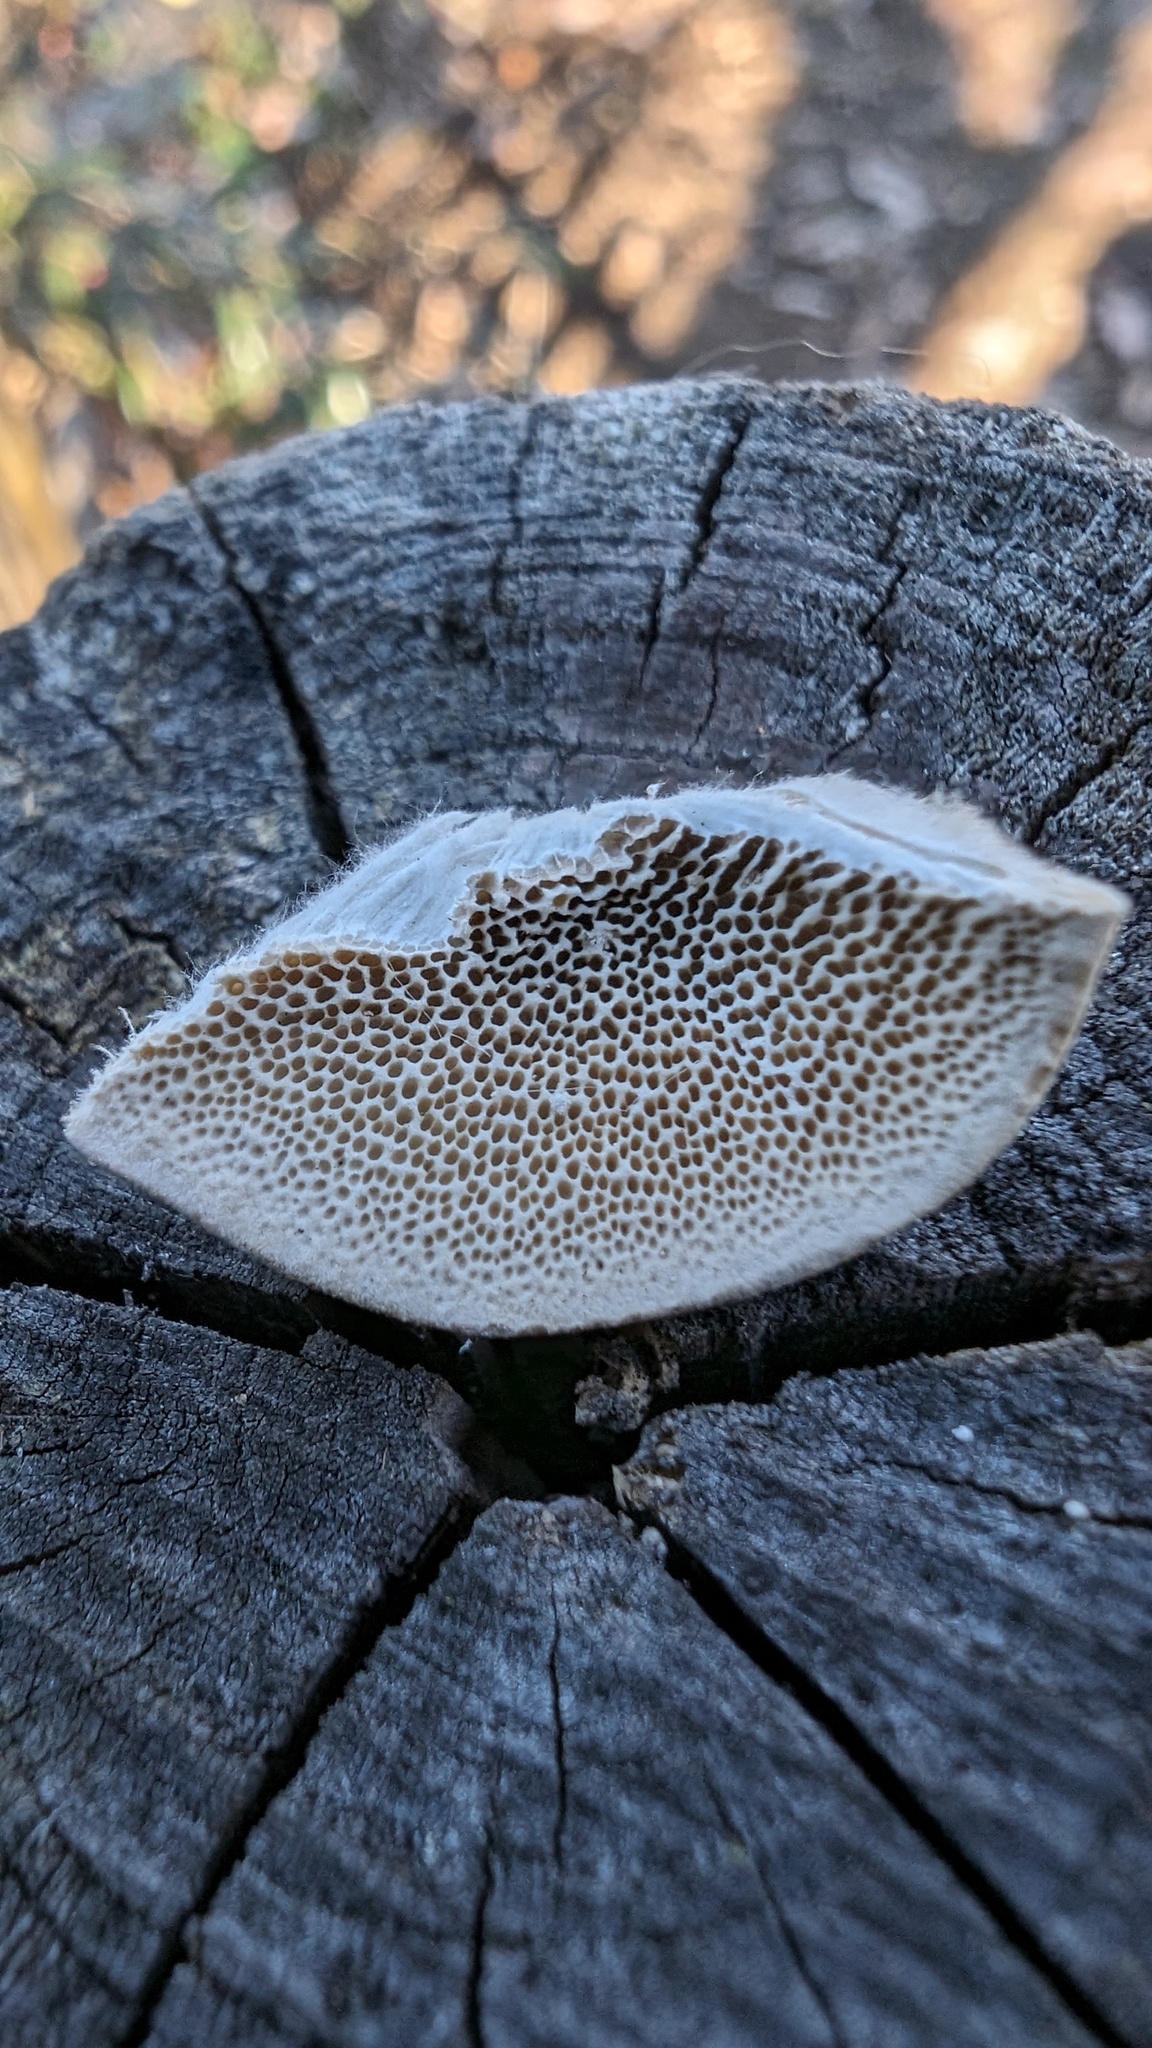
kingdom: Fungi
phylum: Basidiomycota
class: Agaricomycetes
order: Polyporales
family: Polyporaceae
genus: Trametes
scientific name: Trametes hirsuta
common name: Hairy bracket
